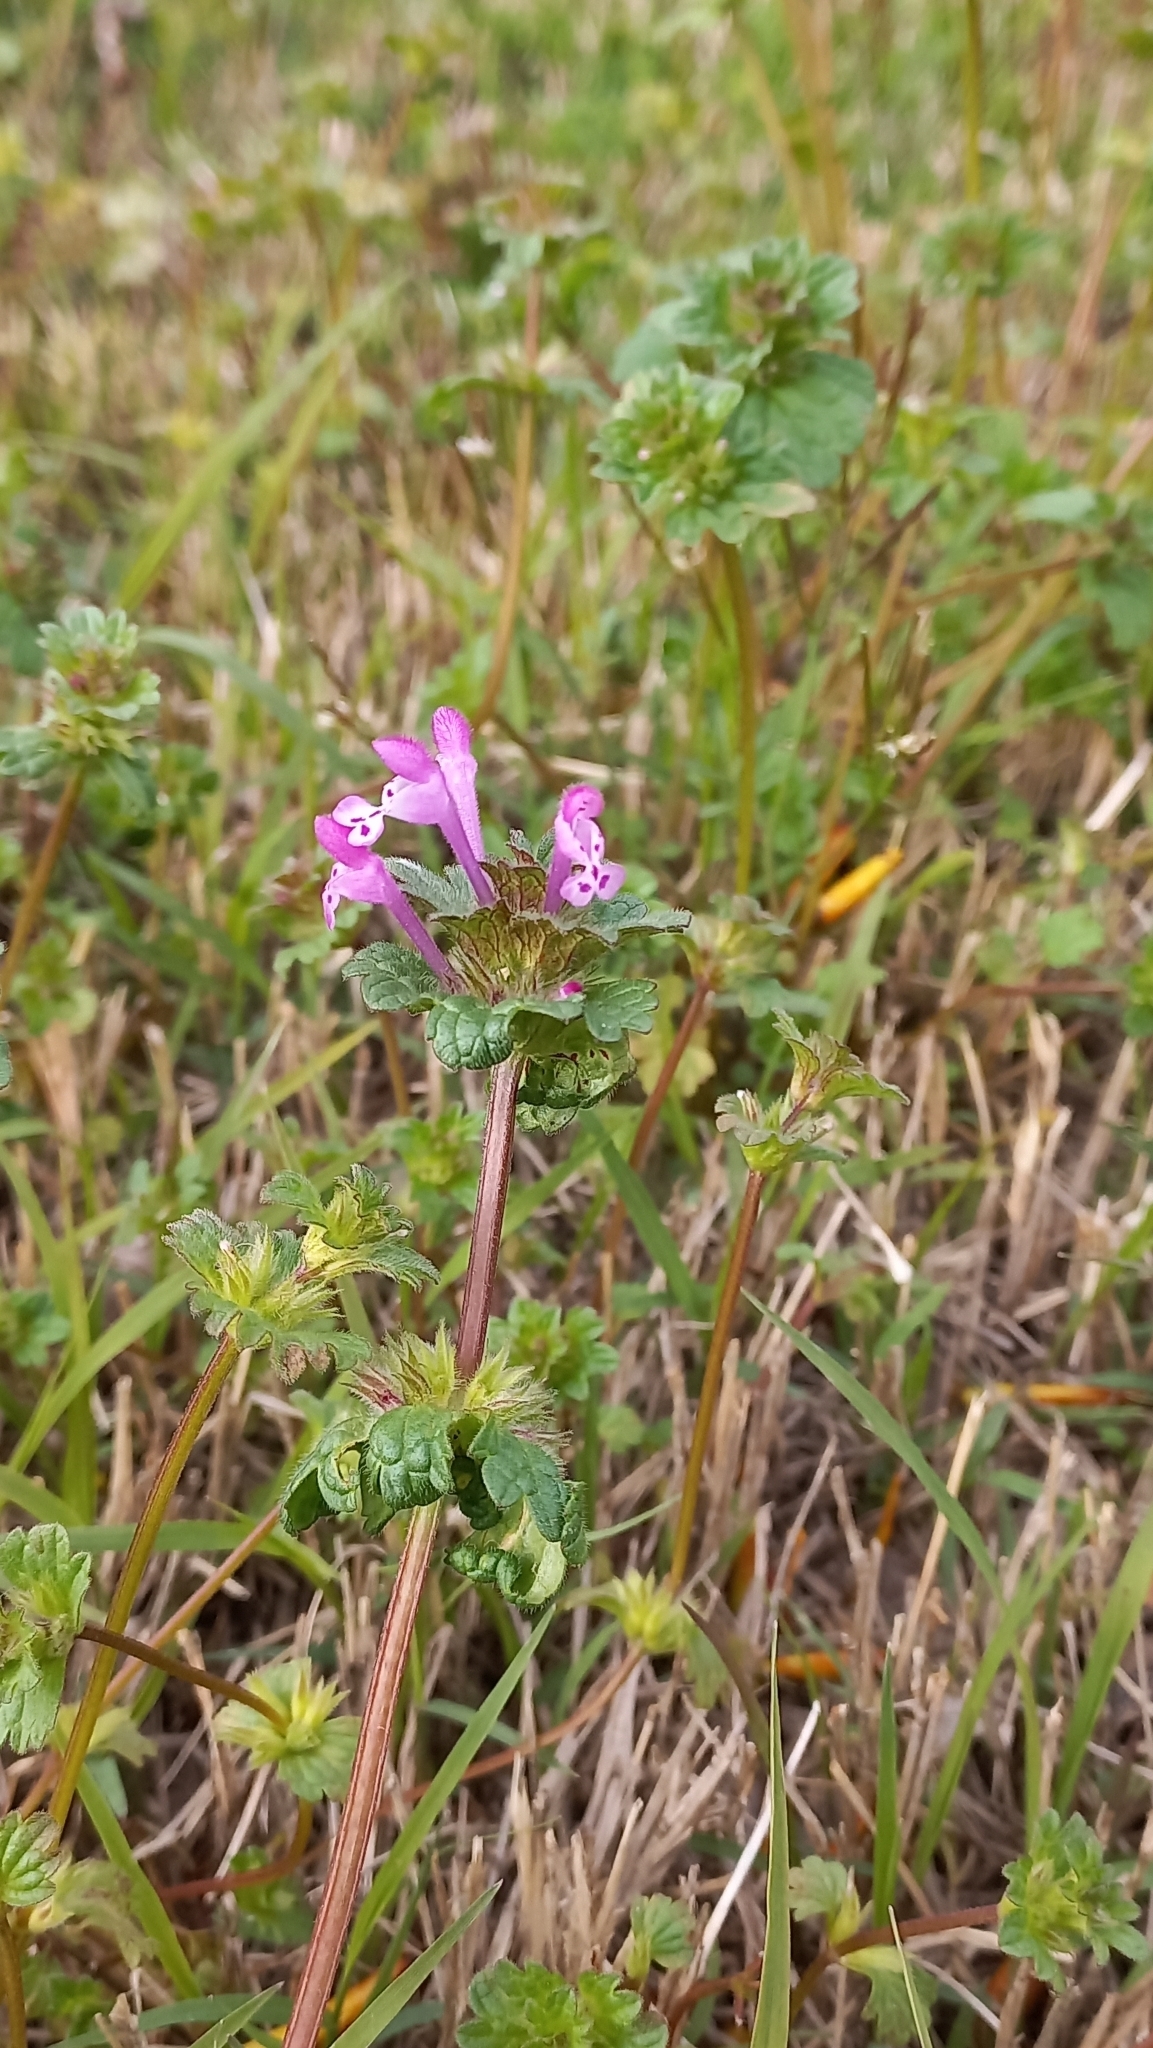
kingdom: Plantae
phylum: Tracheophyta
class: Magnoliopsida
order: Lamiales
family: Lamiaceae
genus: Lamium
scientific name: Lamium amplexicaule
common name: Henbit dead-nettle
